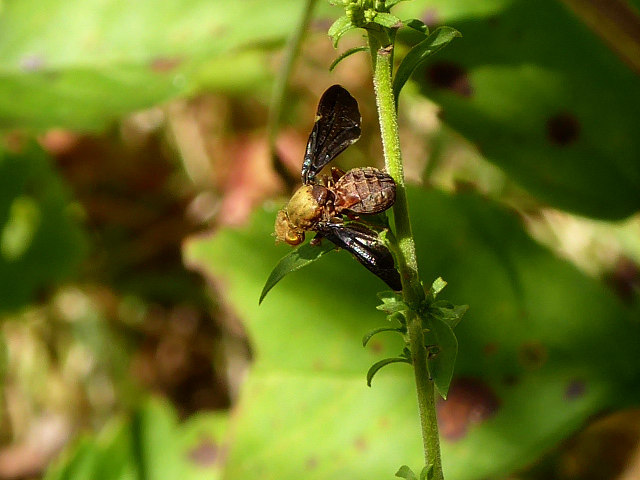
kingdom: Animalia
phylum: Arthropoda
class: Insecta
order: Diptera
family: Tephritidae
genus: Eurosta
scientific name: Eurosta comma
